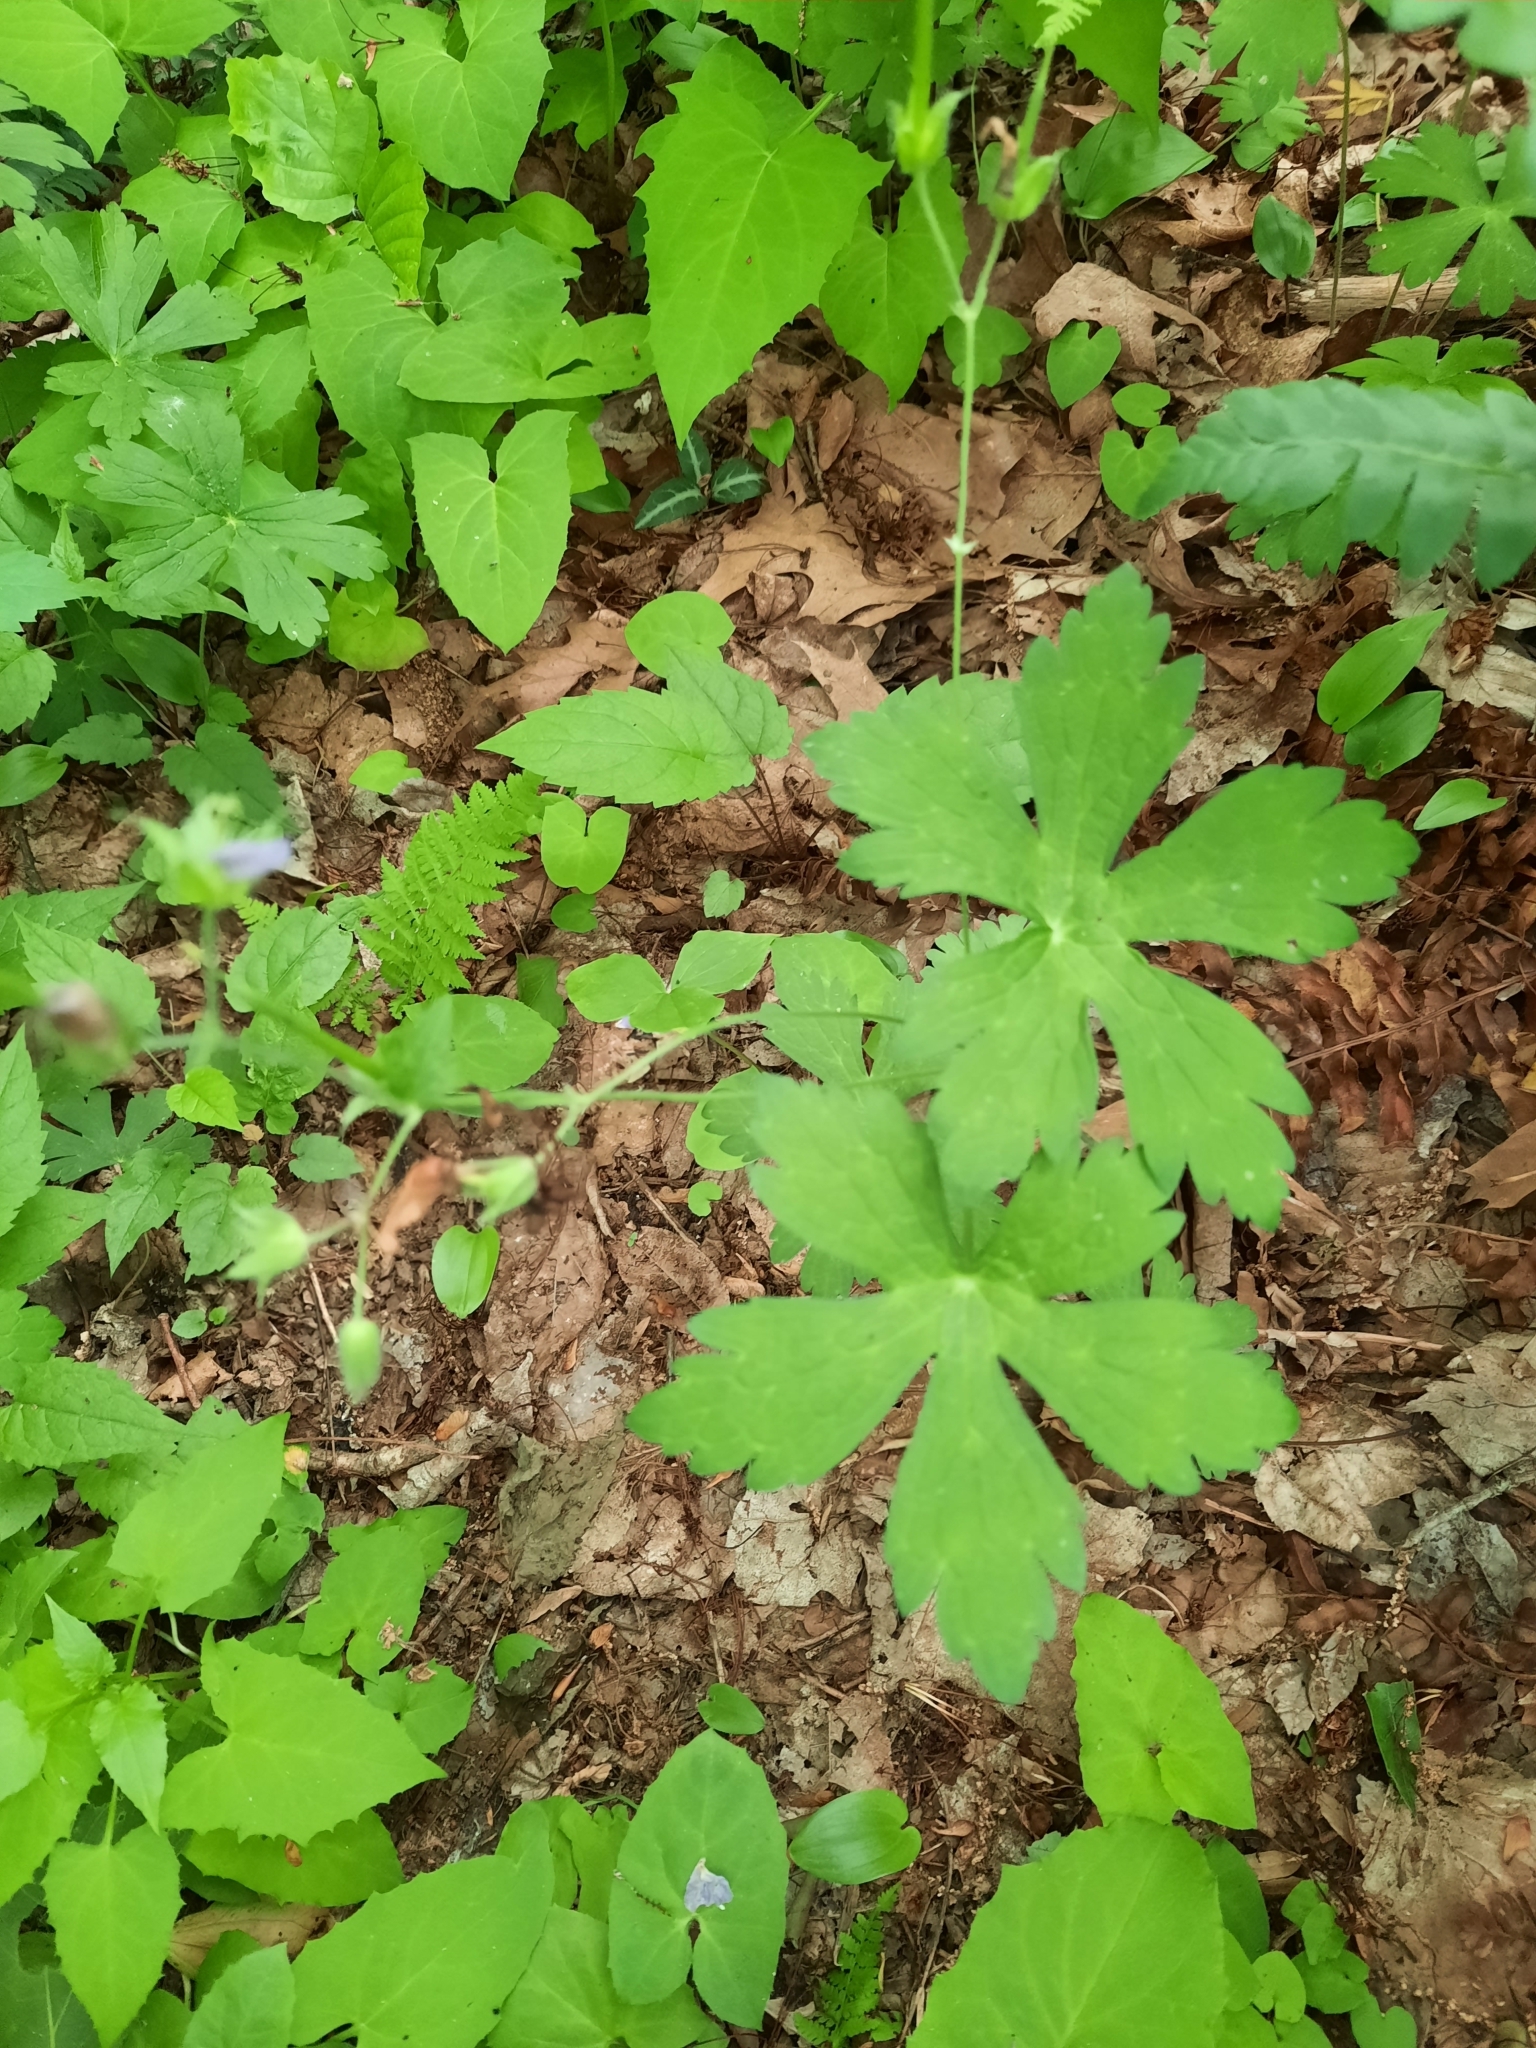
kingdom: Plantae
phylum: Tracheophyta
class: Magnoliopsida
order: Geraniales
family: Geraniaceae
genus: Geranium
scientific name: Geranium maculatum
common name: Spotted geranium
